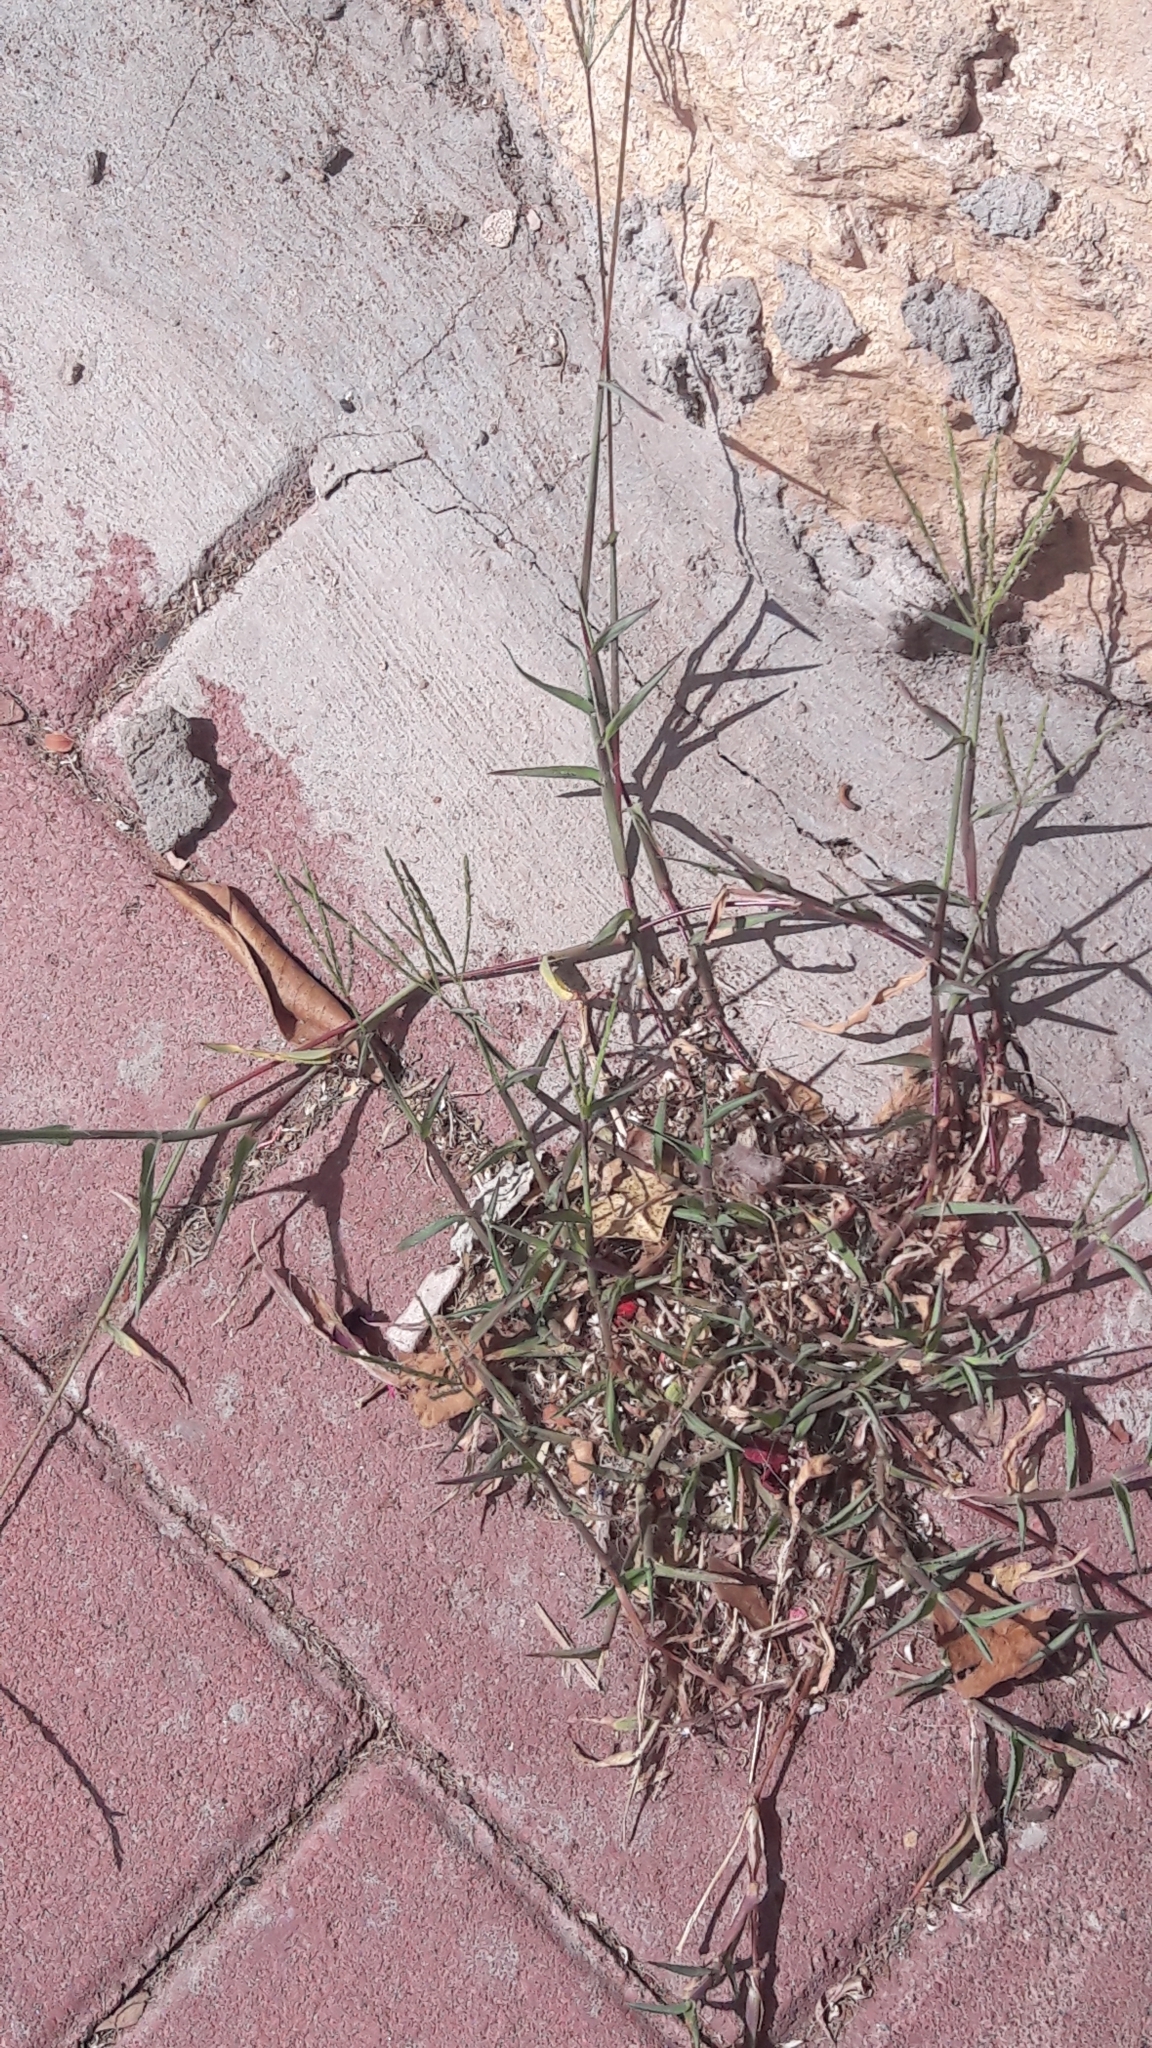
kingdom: Plantae
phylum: Tracheophyta
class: Liliopsida
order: Poales
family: Poaceae
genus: Cynodon
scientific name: Cynodon dactylon
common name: Bermuda grass
